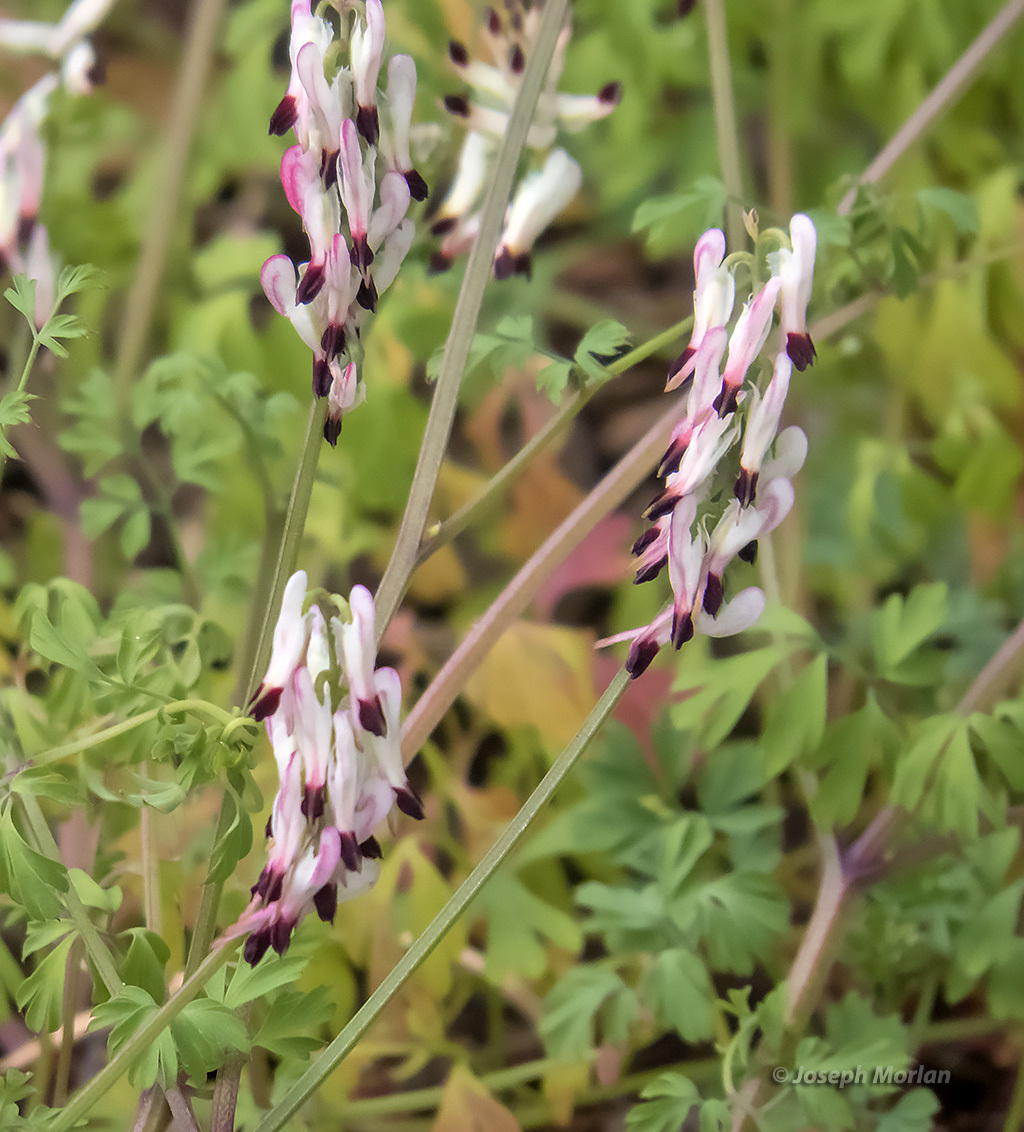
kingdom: Plantae
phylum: Tracheophyta
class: Magnoliopsida
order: Ranunculales
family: Papaveraceae
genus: Fumaria
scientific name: Fumaria capreolata
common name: White ramping-fumitory
